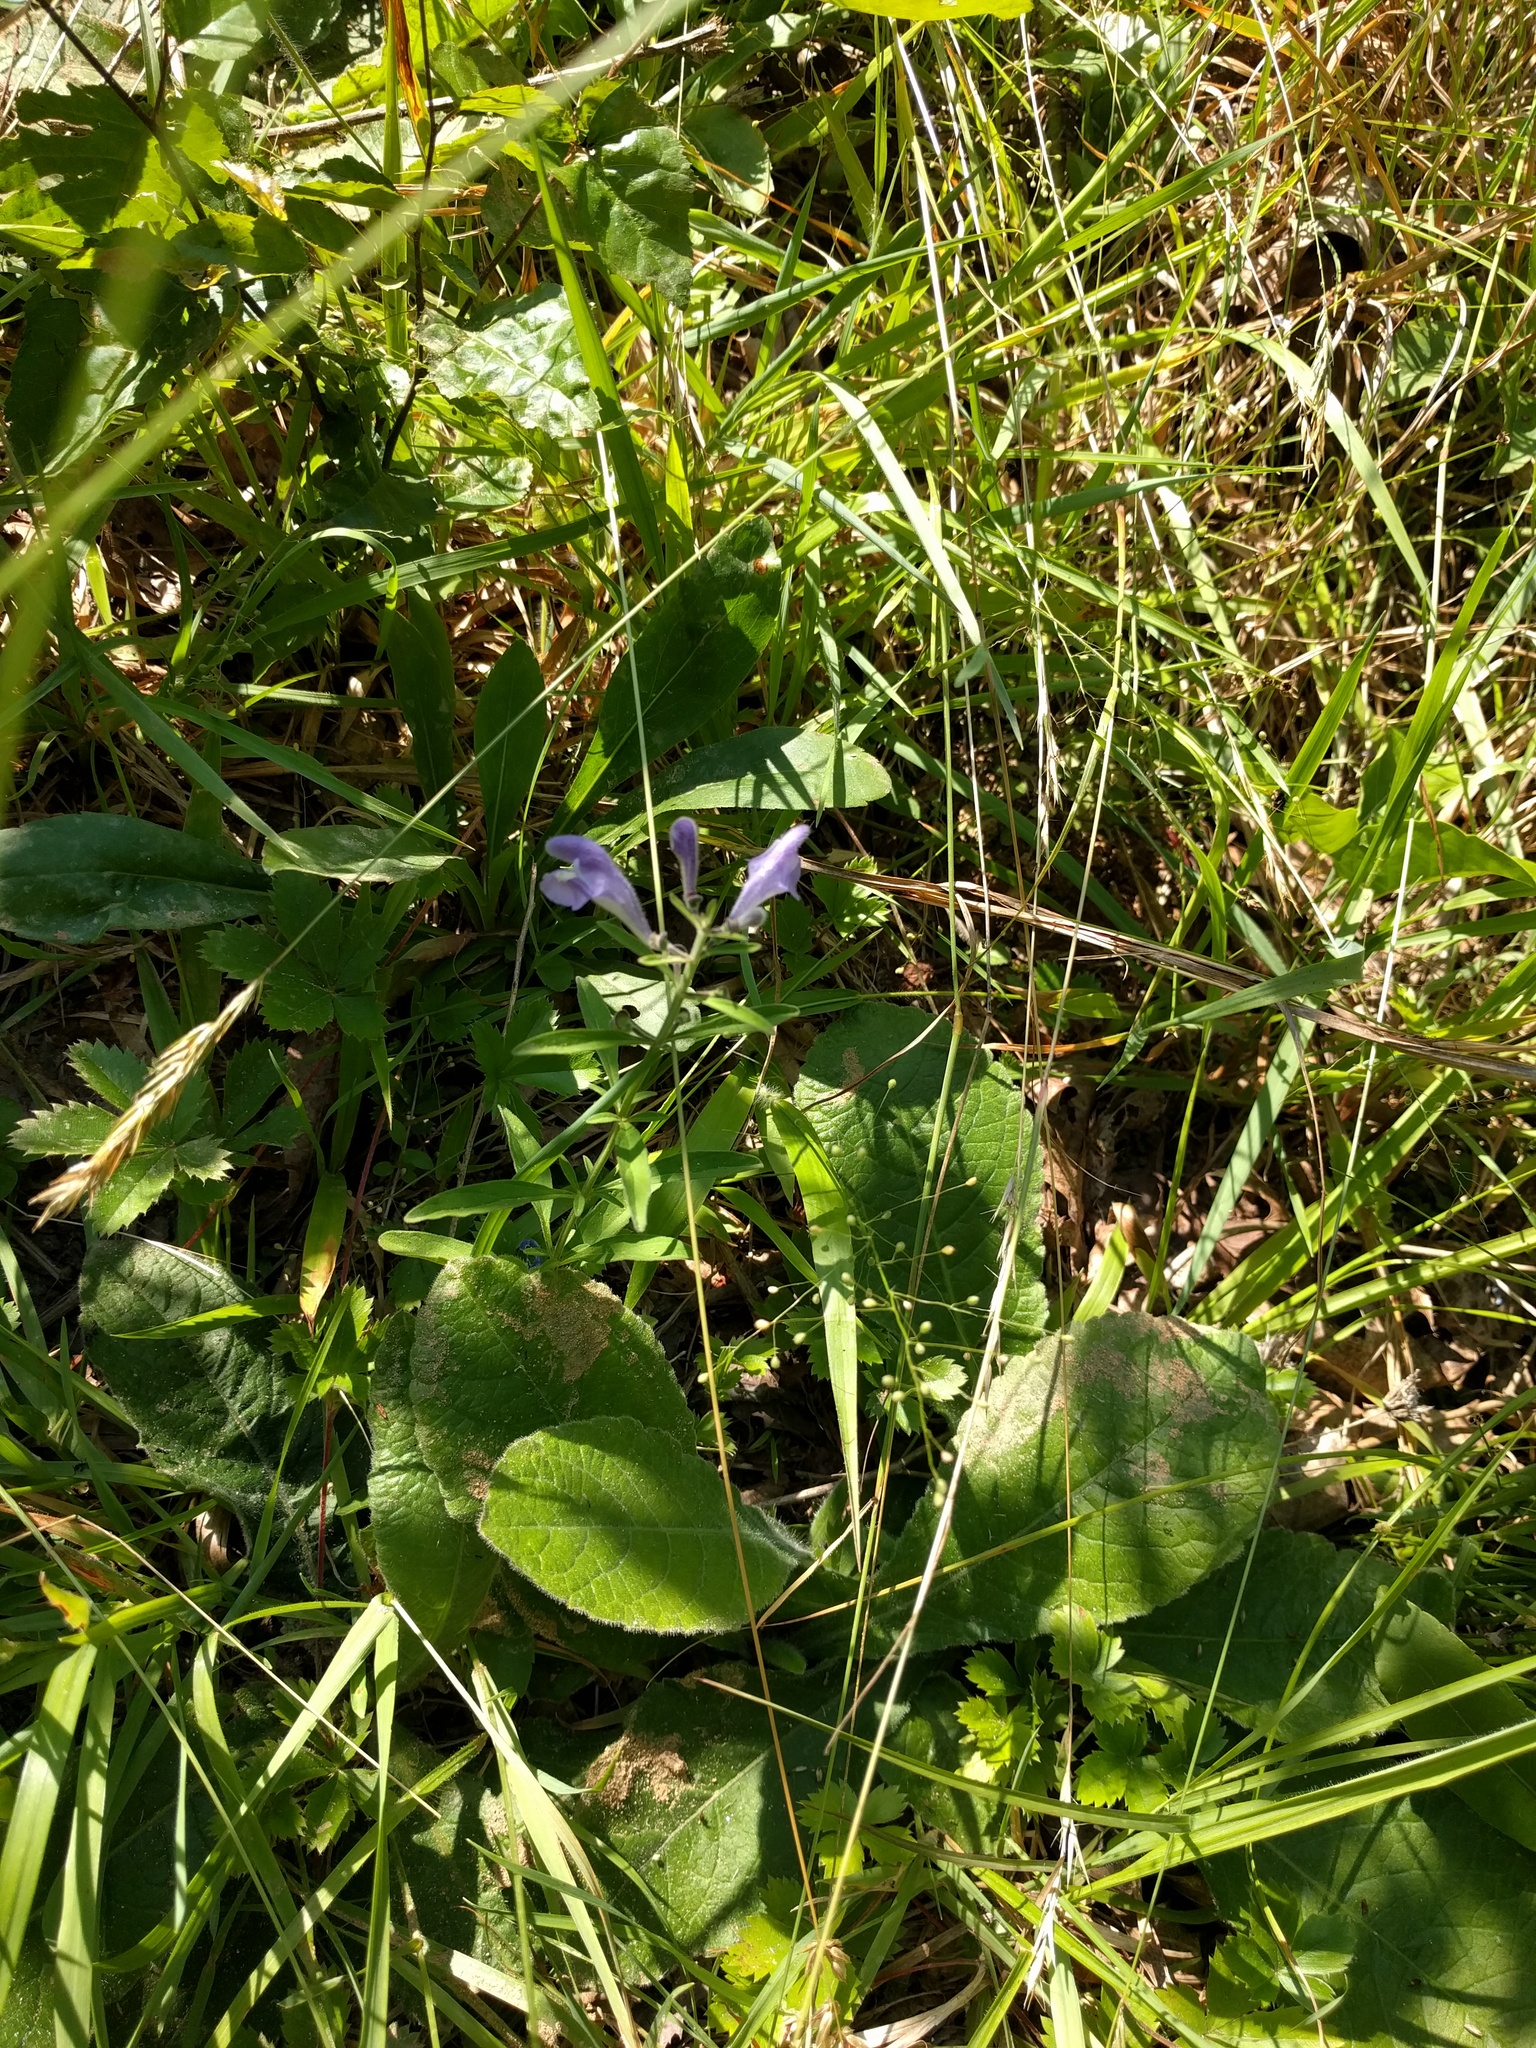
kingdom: Plantae
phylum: Tracheophyta
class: Magnoliopsida
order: Lamiales
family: Lamiaceae
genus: Scutellaria
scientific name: Scutellaria integrifolia
